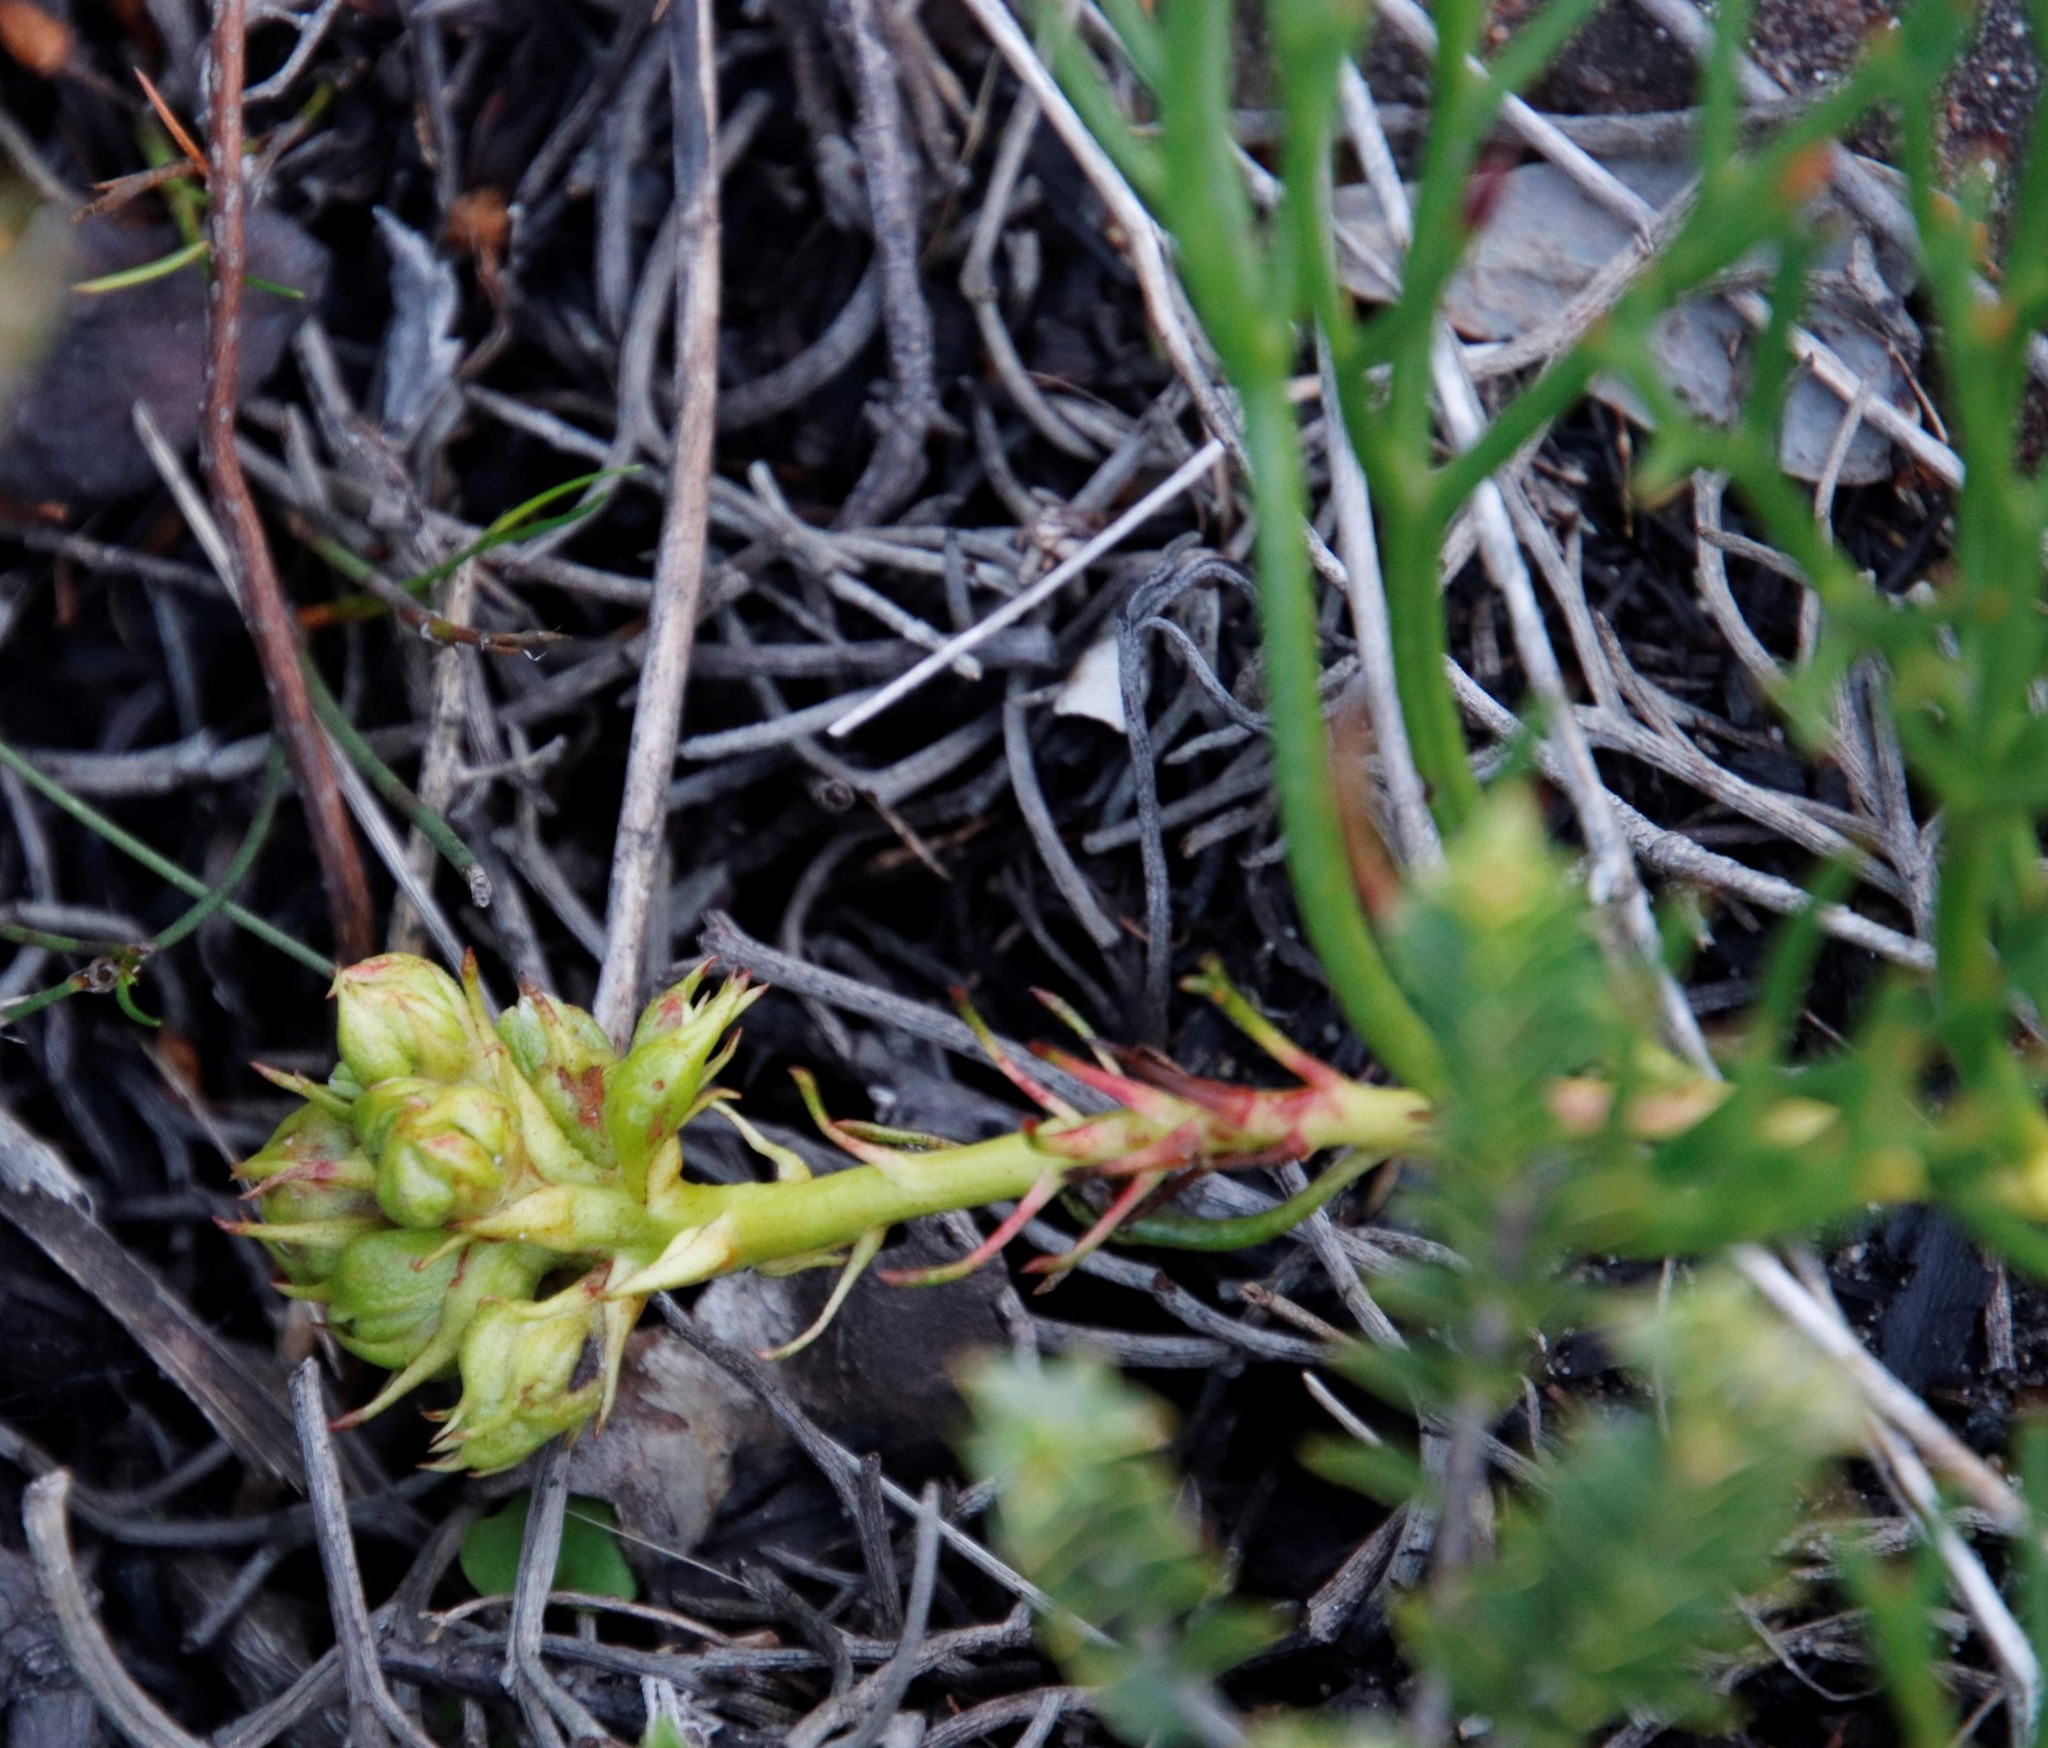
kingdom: Plantae
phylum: Tracheophyta
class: Magnoliopsida
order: Proteales
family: Proteaceae
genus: Serruria
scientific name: Serruria collina
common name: Lost spiderhead
